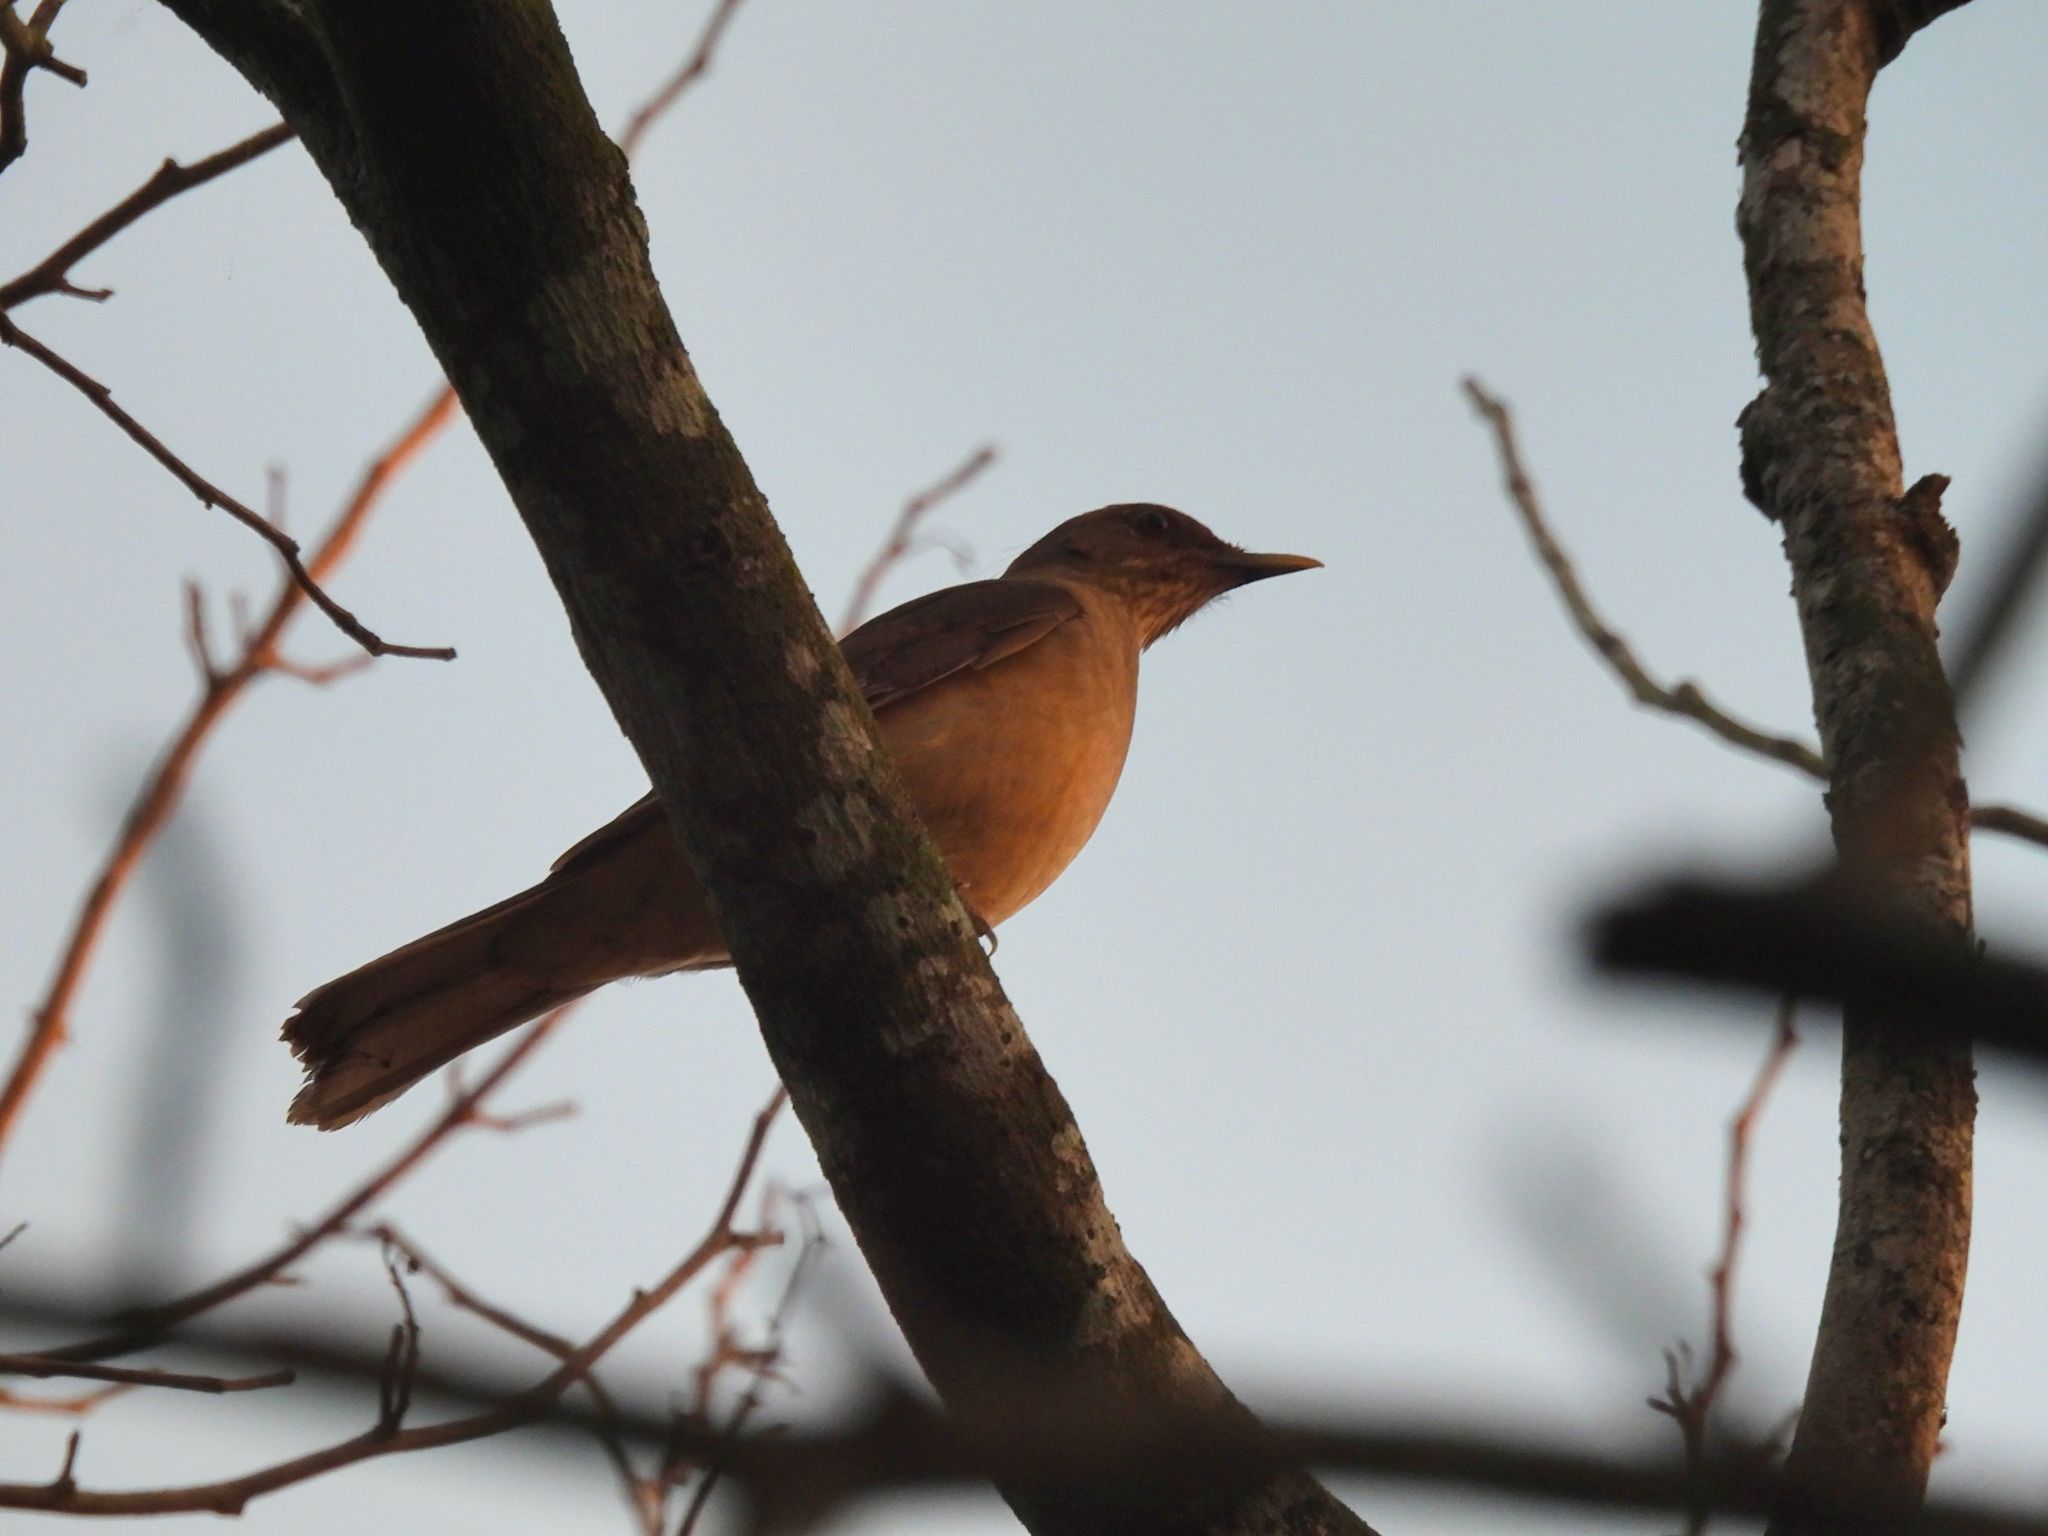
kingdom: Animalia
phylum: Chordata
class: Aves
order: Passeriformes
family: Turdidae
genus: Turdus
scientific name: Turdus grayi
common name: Clay-colored thrush
